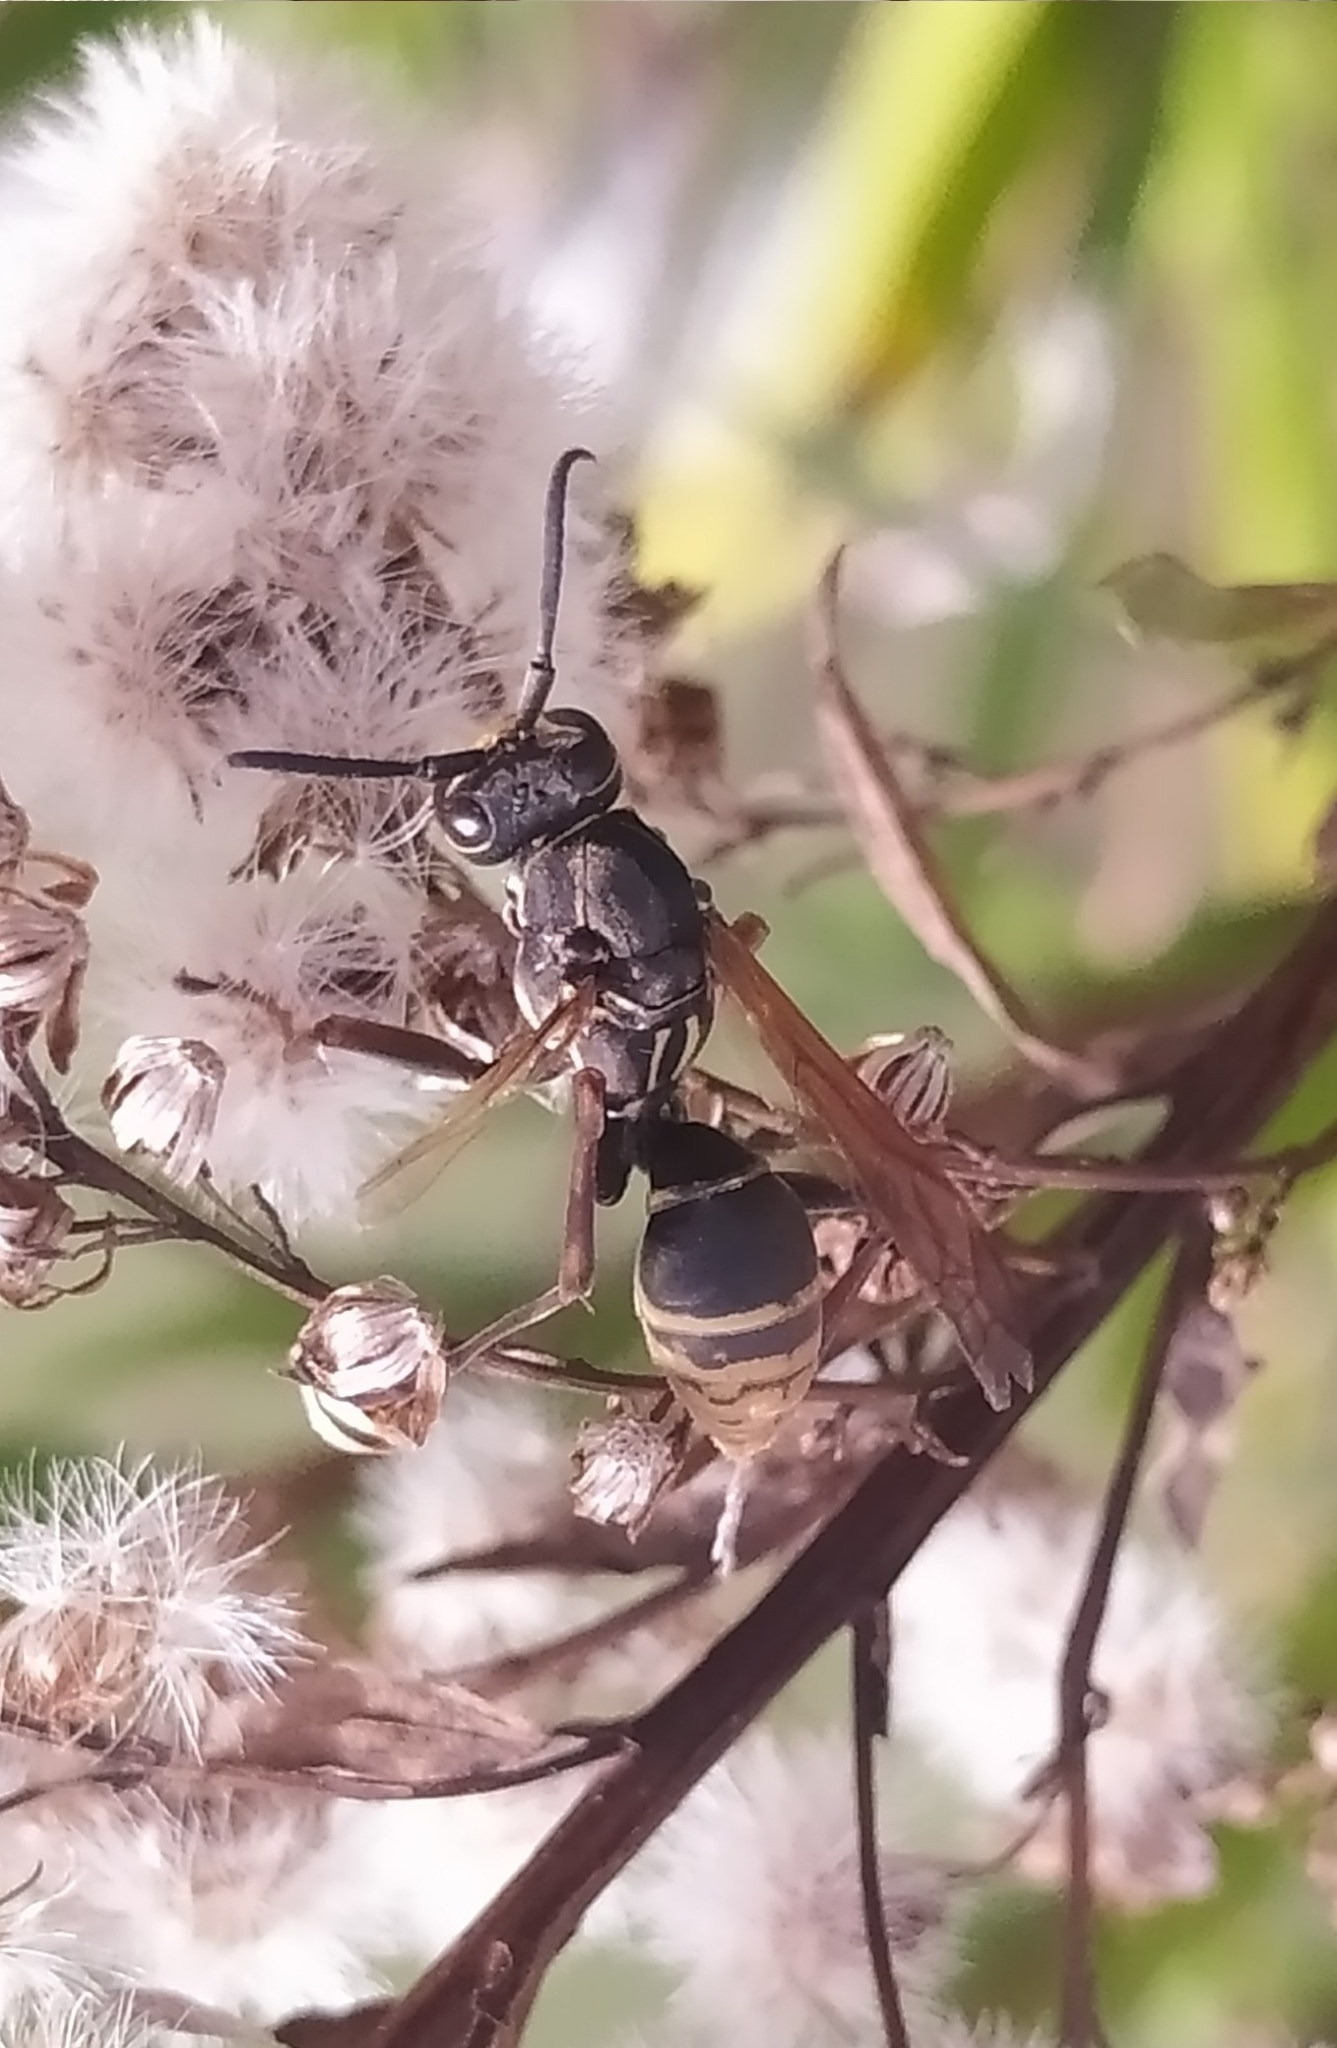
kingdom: Animalia
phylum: Arthropoda
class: Insecta
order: Hymenoptera
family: Eumenidae
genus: Polistes
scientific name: Polistes cinerascens
